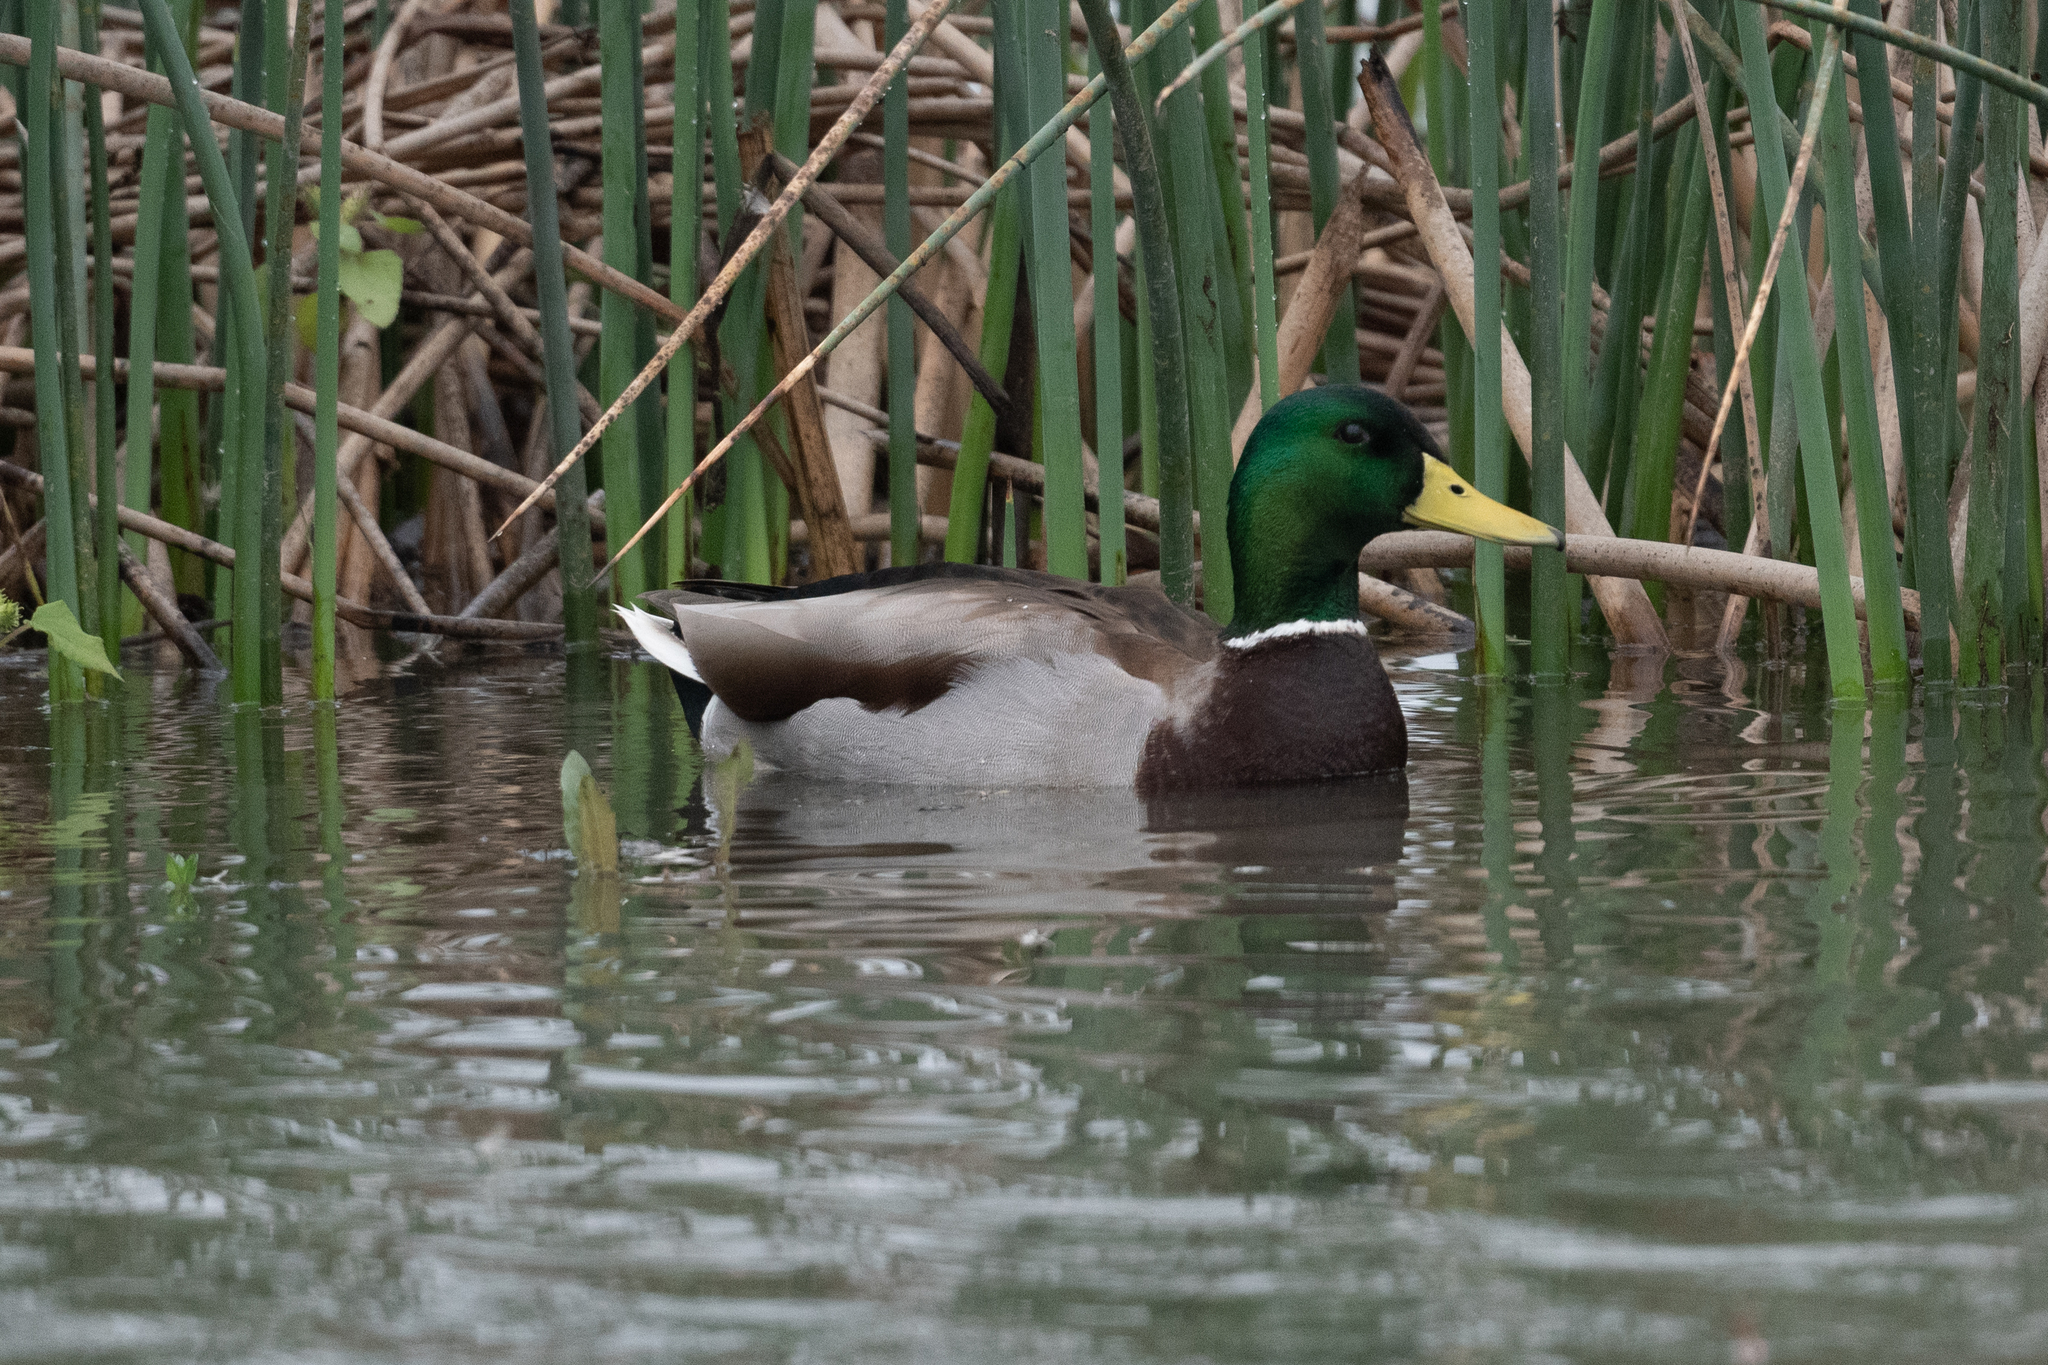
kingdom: Animalia
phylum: Chordata
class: Aves
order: Anseriformes
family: Anatidae
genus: Anas
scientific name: Anas platyrhynchos
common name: Mallard
